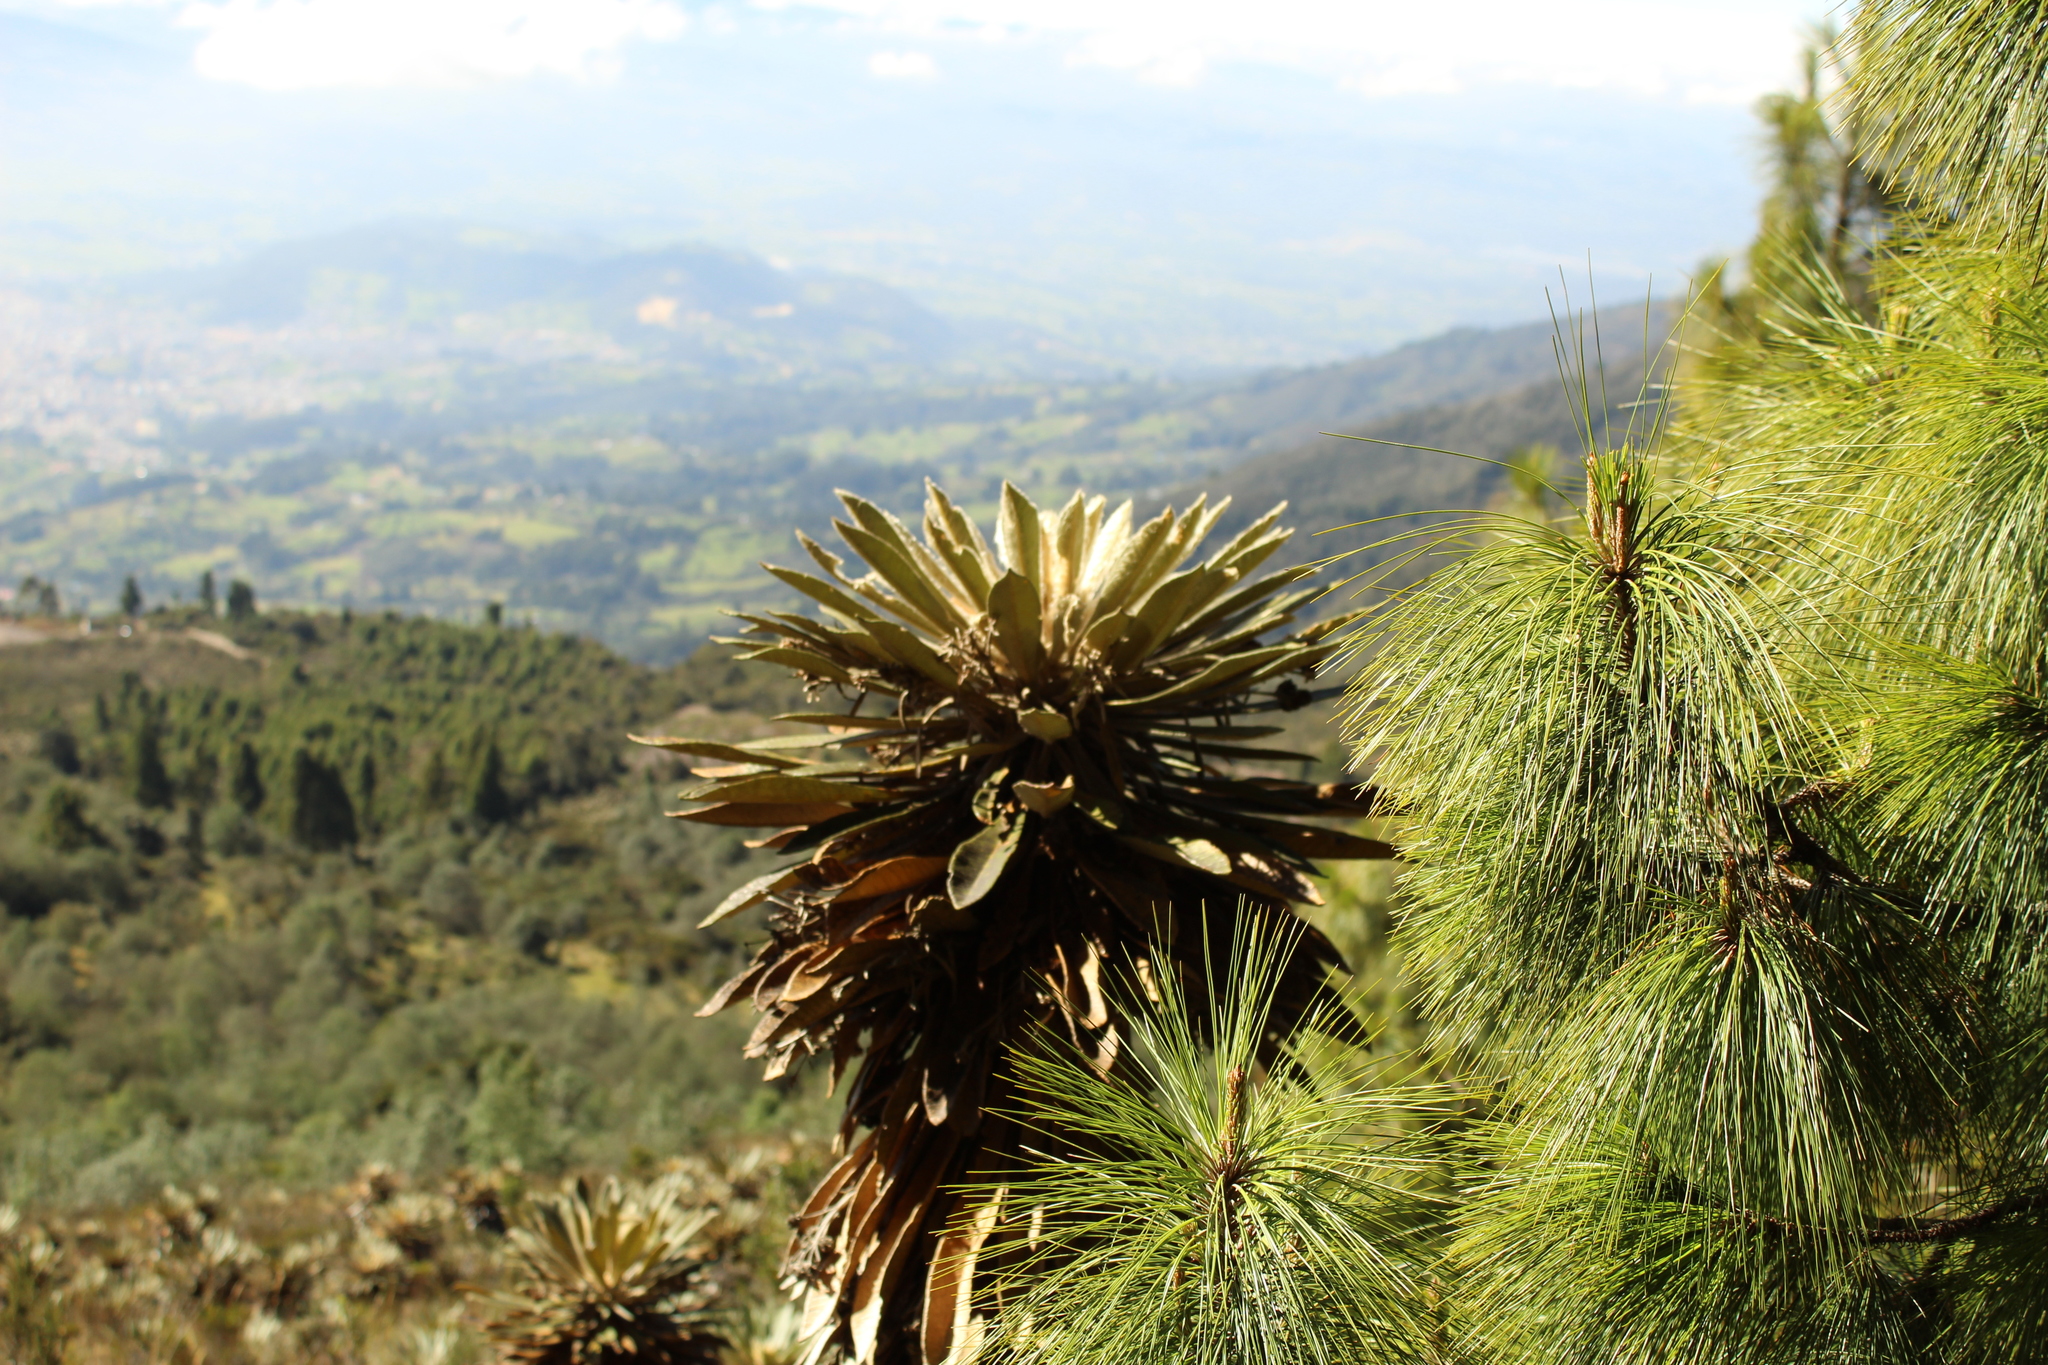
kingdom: Plantae
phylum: Tracheophyta
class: Magnoliopsida
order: Asterales
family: Asteraceae
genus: Espeletia
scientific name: Espeletia guacharaca
